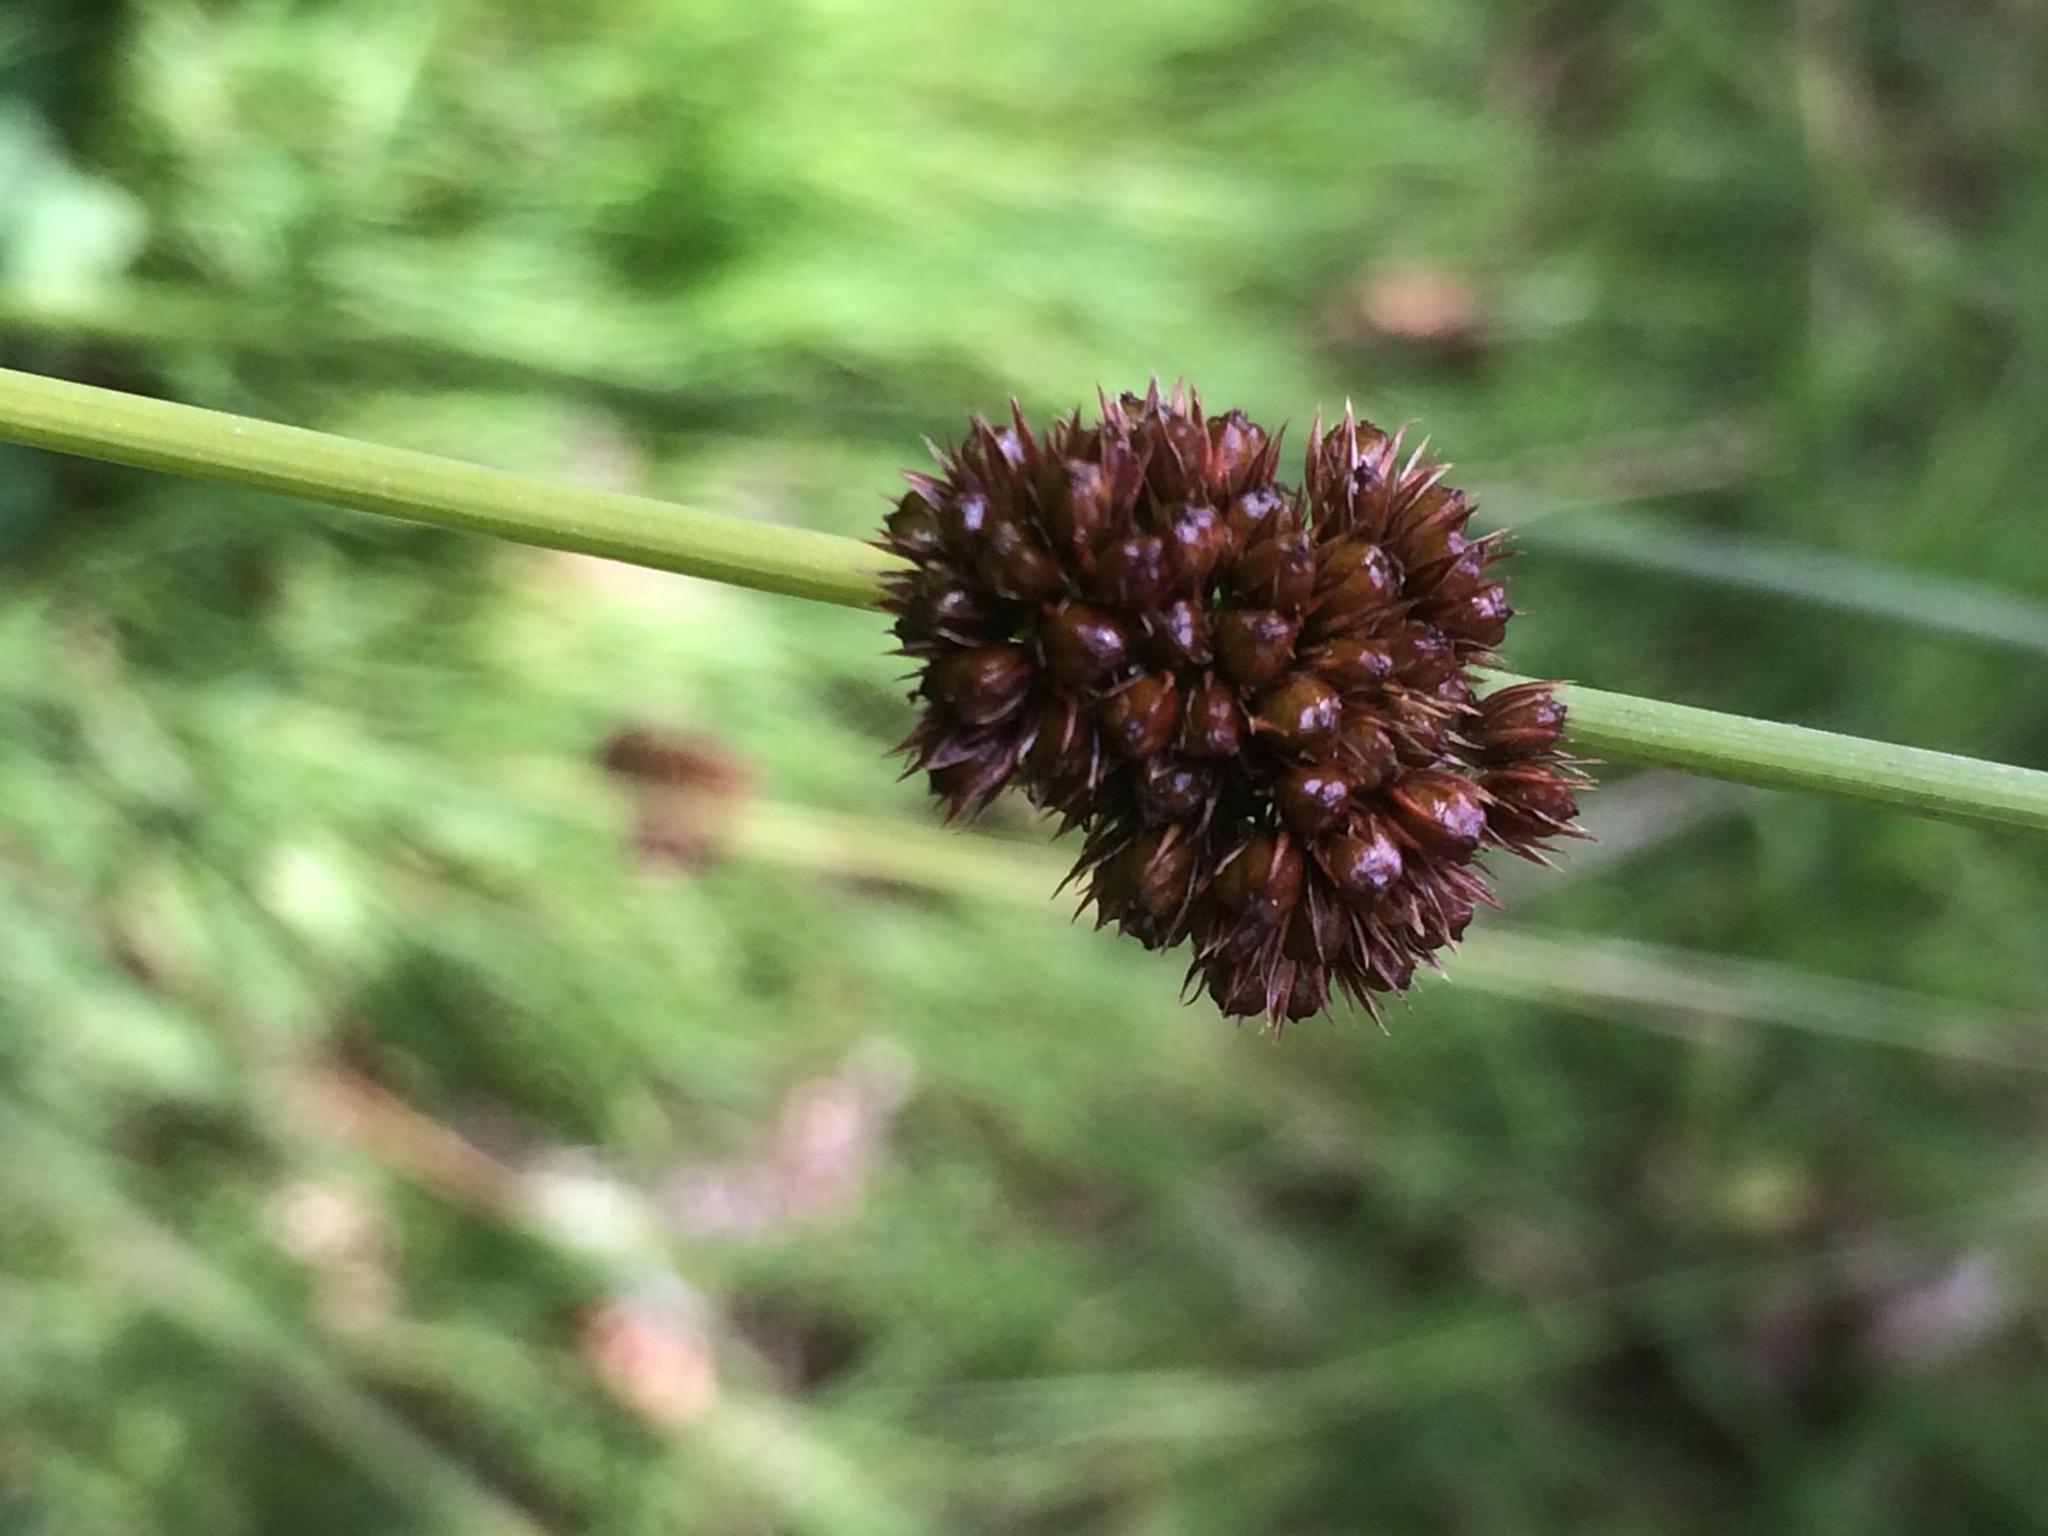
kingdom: Plantae
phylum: Tracheophyta
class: Liliopsida
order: Poales
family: Juncaceae
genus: Juncus
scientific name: Juncus conglomeratus
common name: Compact rush
